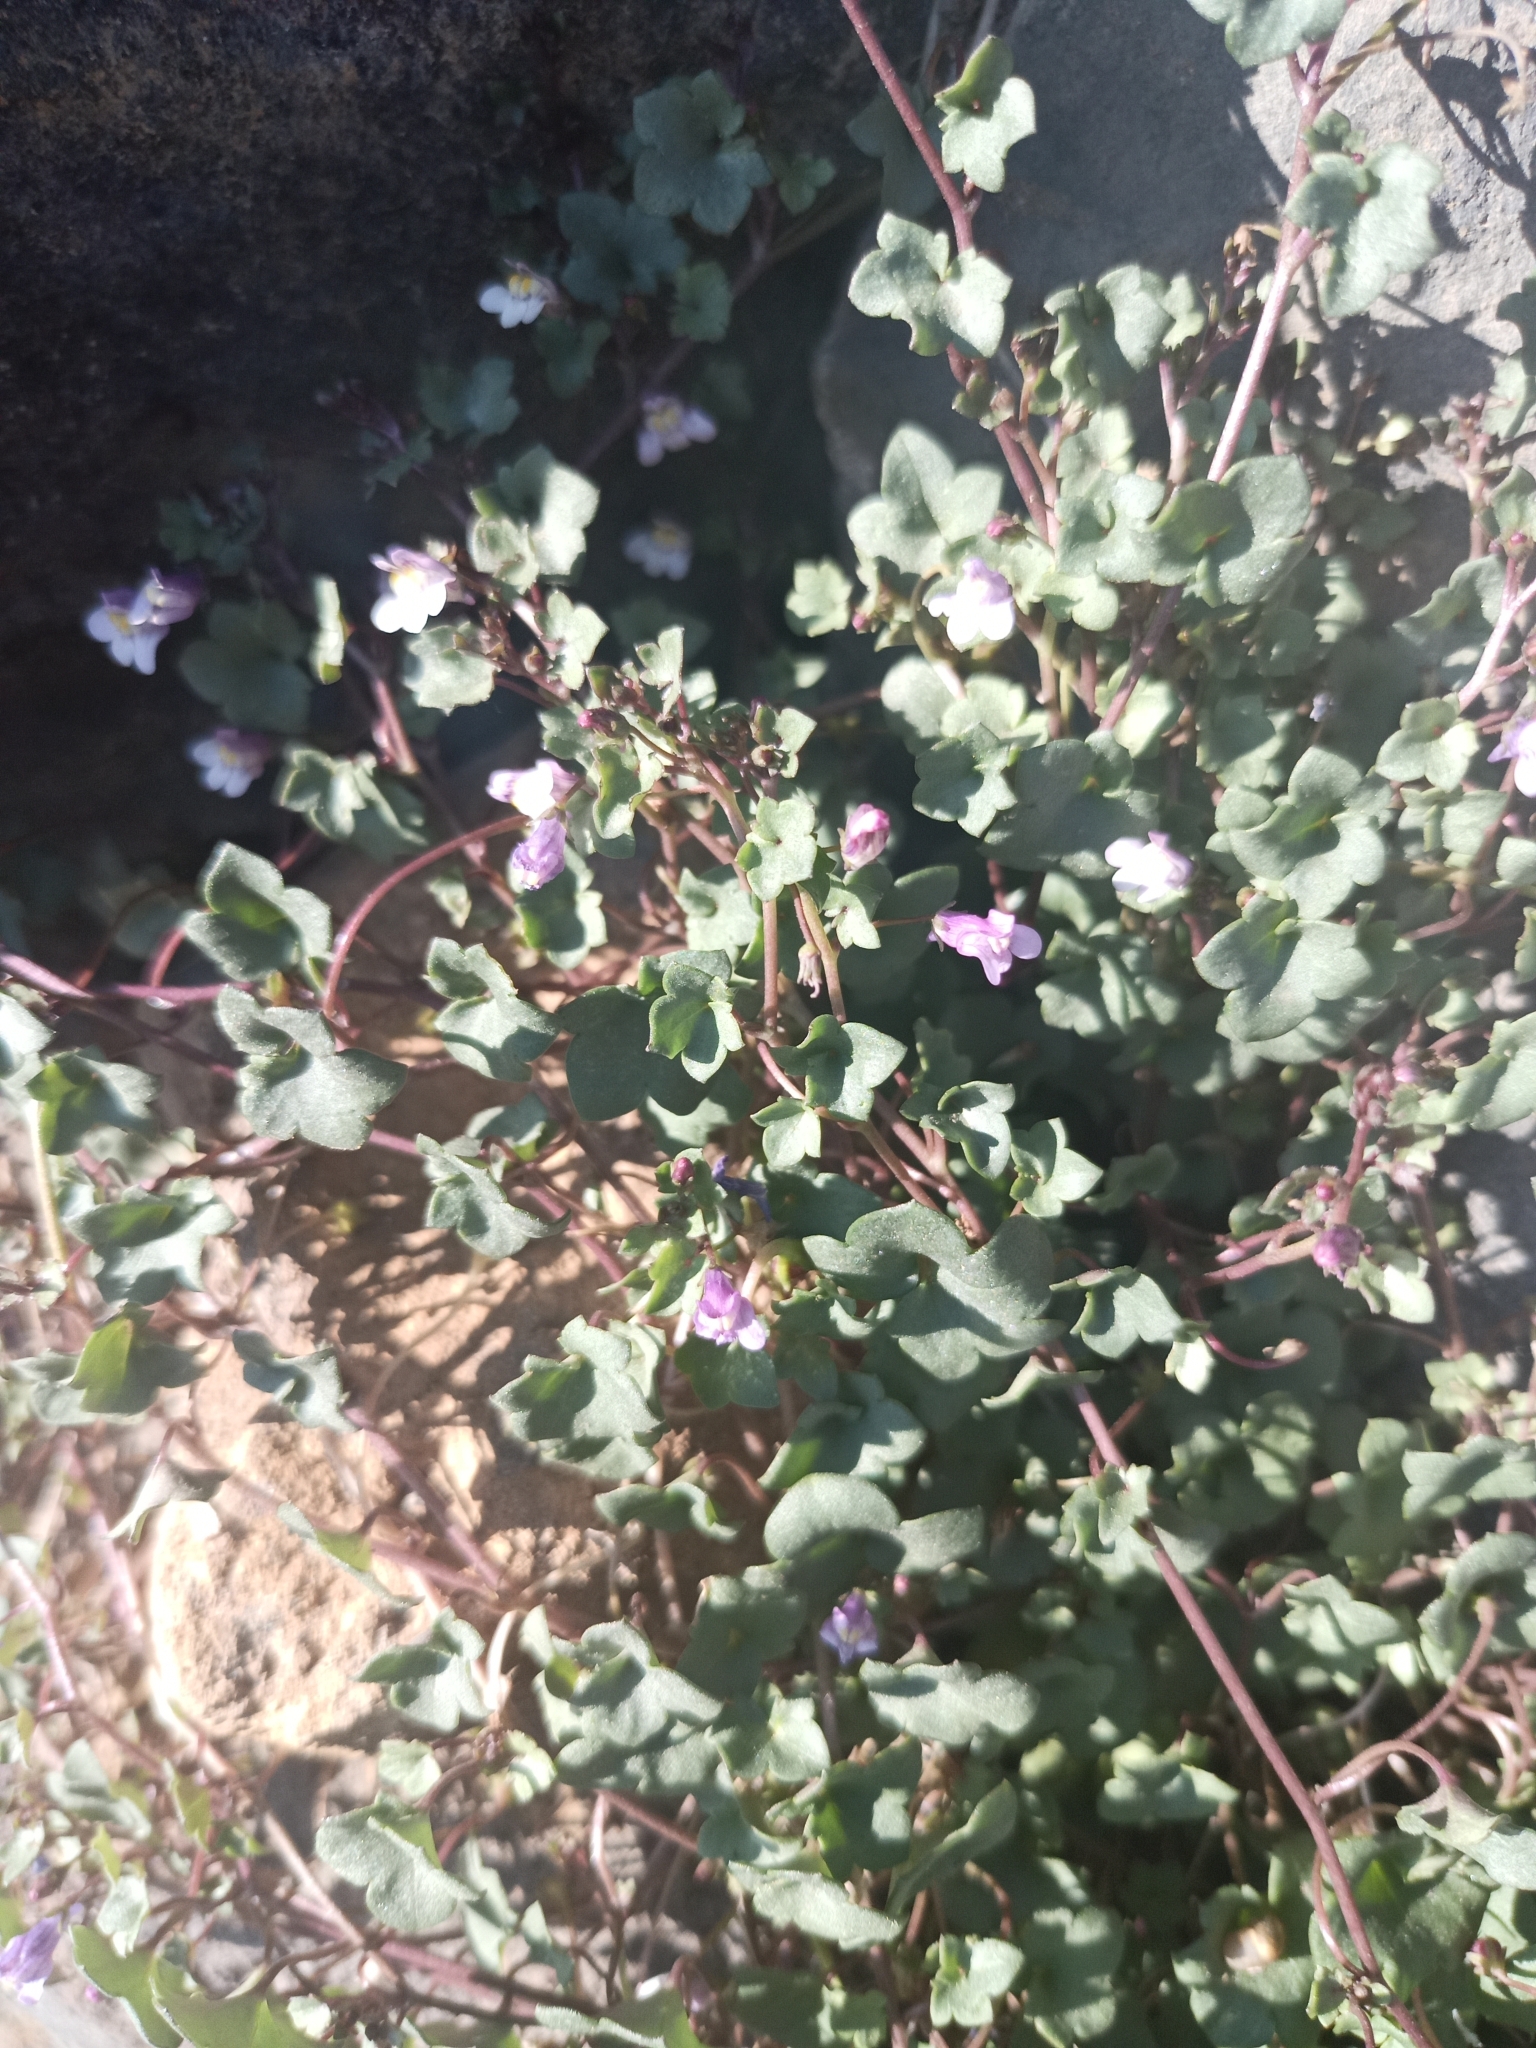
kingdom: Plantae
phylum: Tracheophyta
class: Magnoliopsida
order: Lamiales
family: Plantaginaceae
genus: Cymbalaria
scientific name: Cymbalaria muralis
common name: Ivy-leaved toadflax
